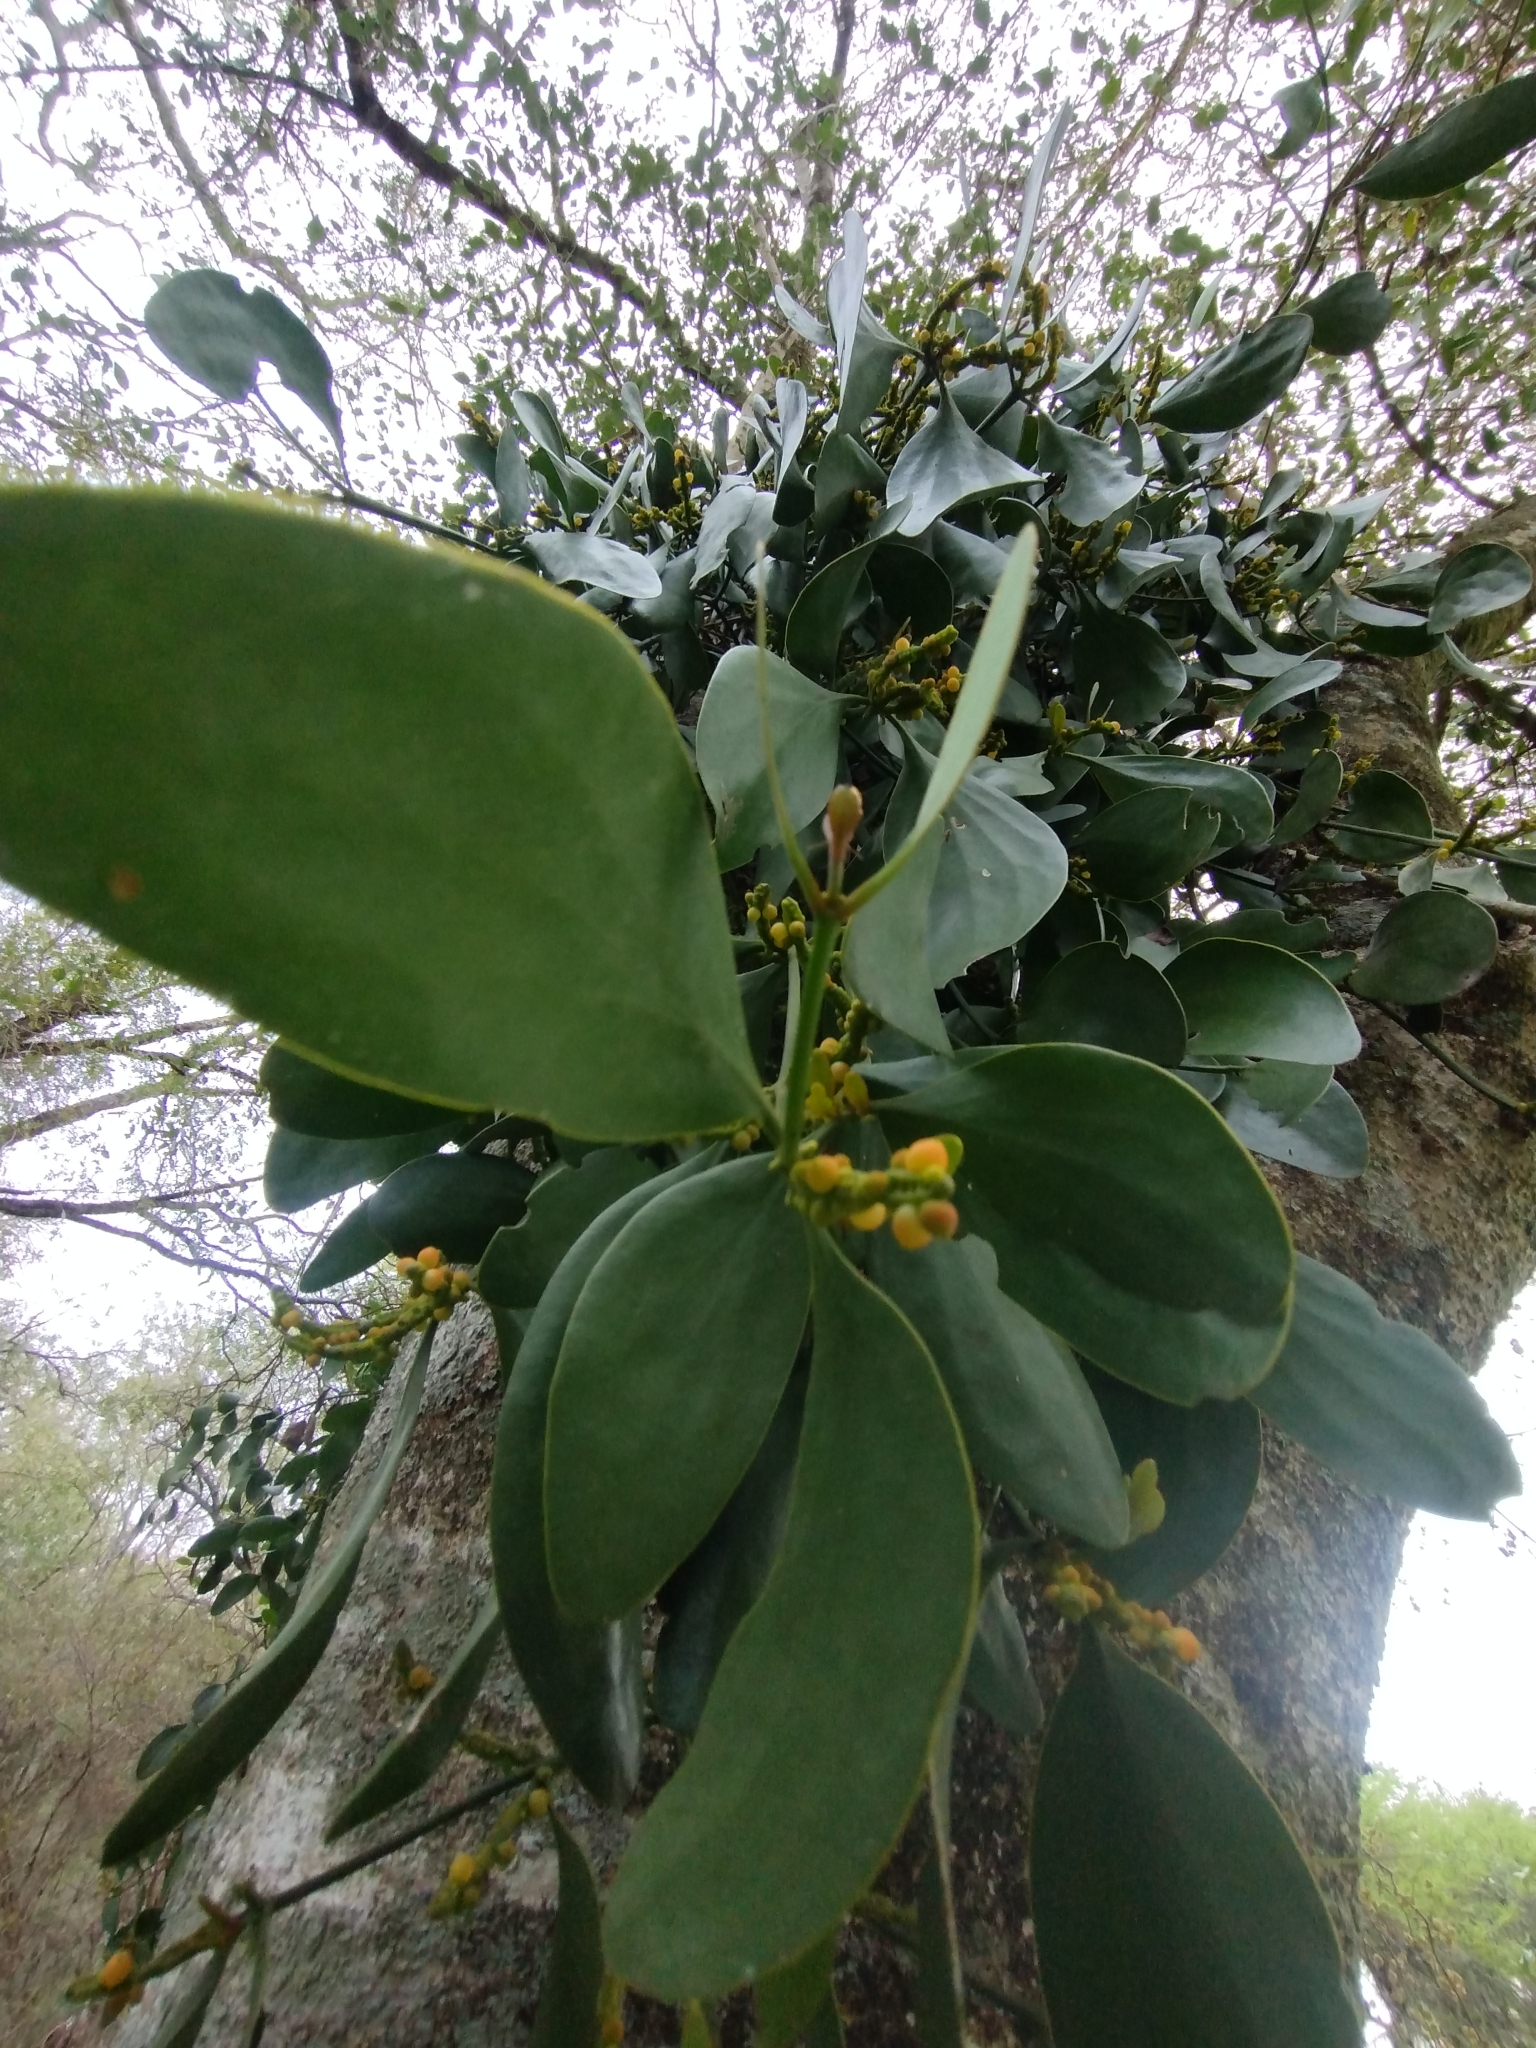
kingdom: Plantae
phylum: Tracheophyta
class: Magnoliopsida
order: Santalales
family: Viscaceae
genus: Phoradendron
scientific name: Phoradendron bathyoryctum
